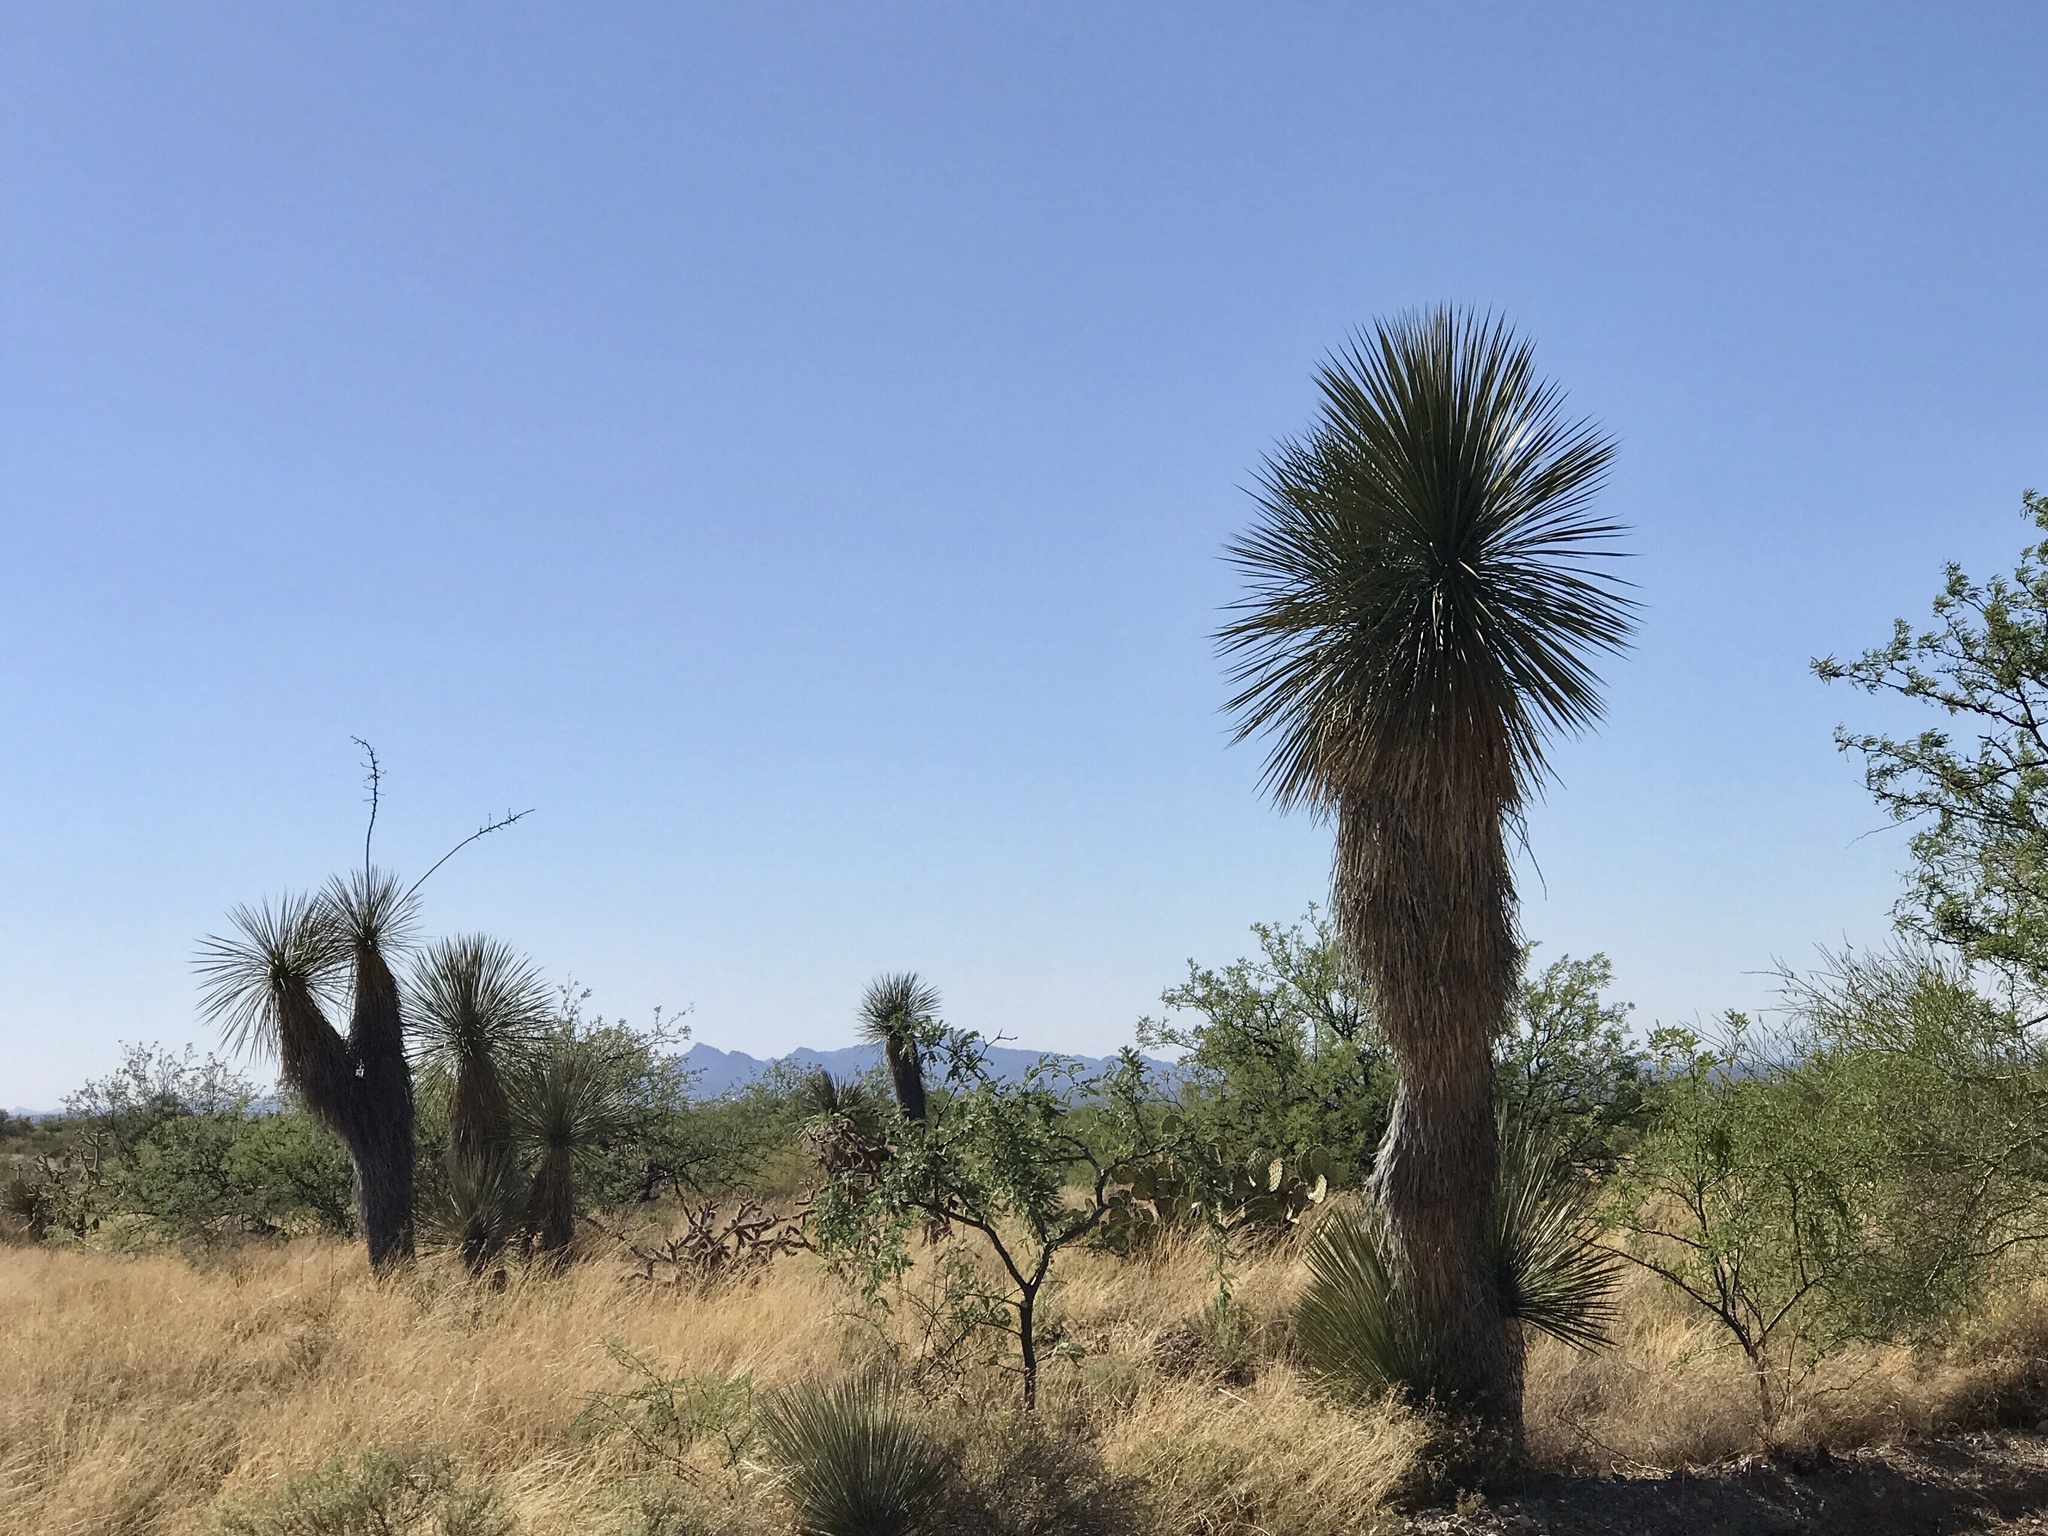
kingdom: Plantae
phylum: Tracheophyta
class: Liliopsida
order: Asparagales
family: Asparagaceae
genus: Yucca
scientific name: Yucca elata
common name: Palmella
